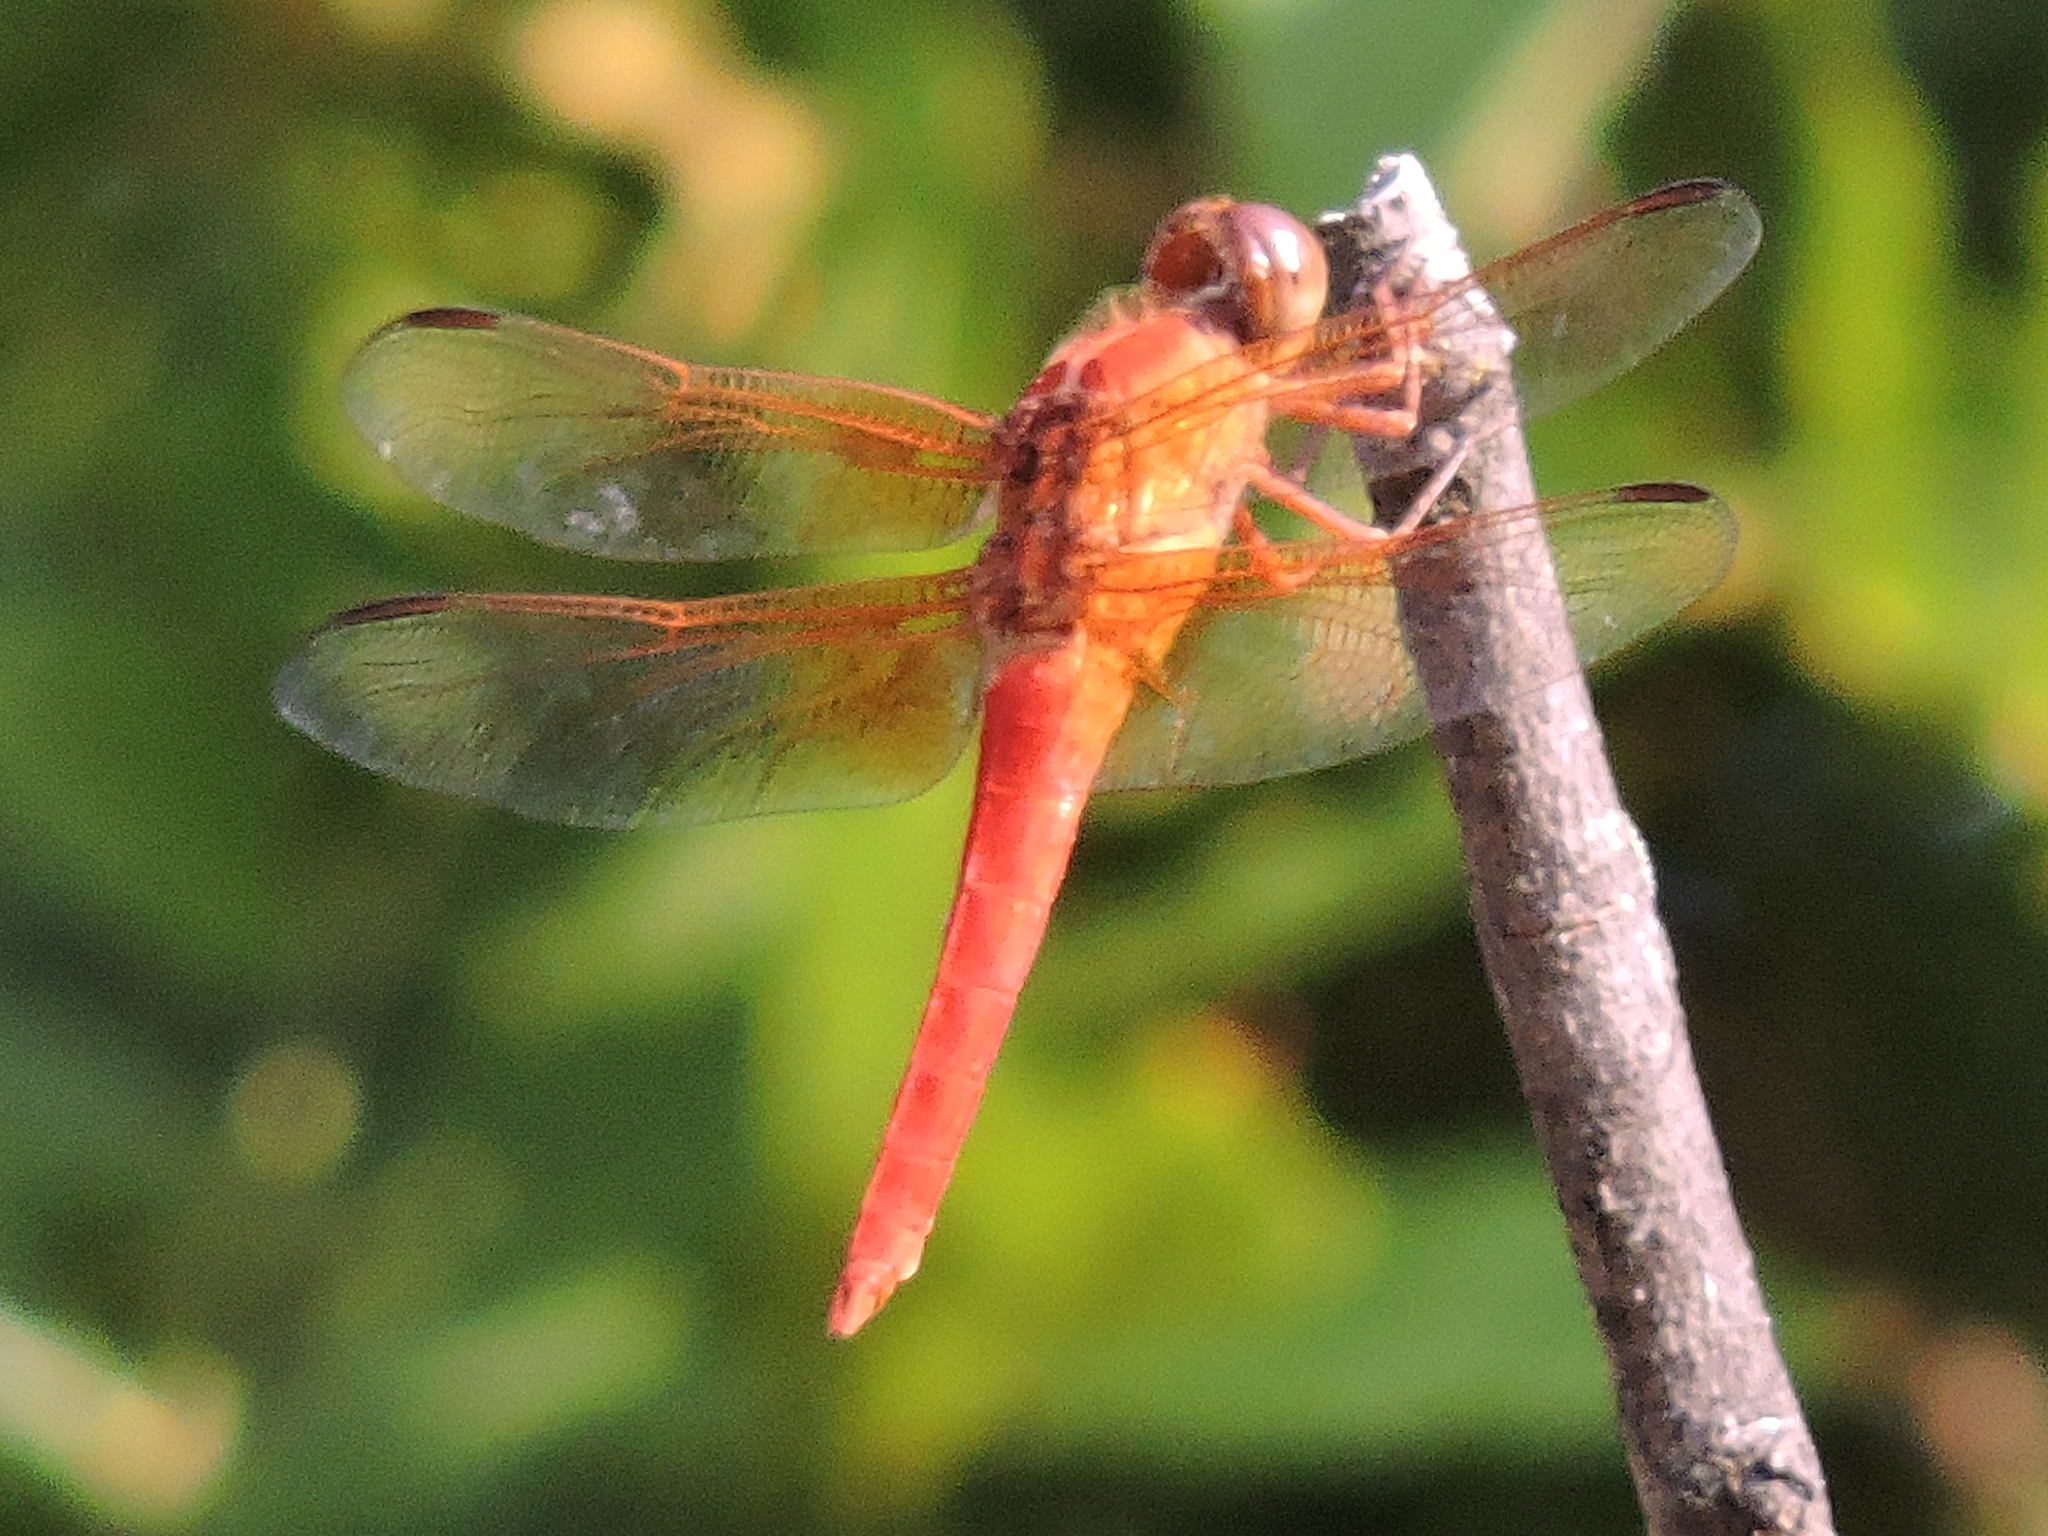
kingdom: Animalia
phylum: Arthropoda
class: Insecta
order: Odonata
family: Libellulidae
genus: Libellula
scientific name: Libellula croceipennis
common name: Neon skimmer
